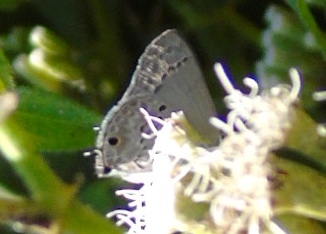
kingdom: Animalia
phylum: Arthropoda
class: Insecta
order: Lepidoptera
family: Lycaenidae
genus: Callicista
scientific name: Callicista columella
